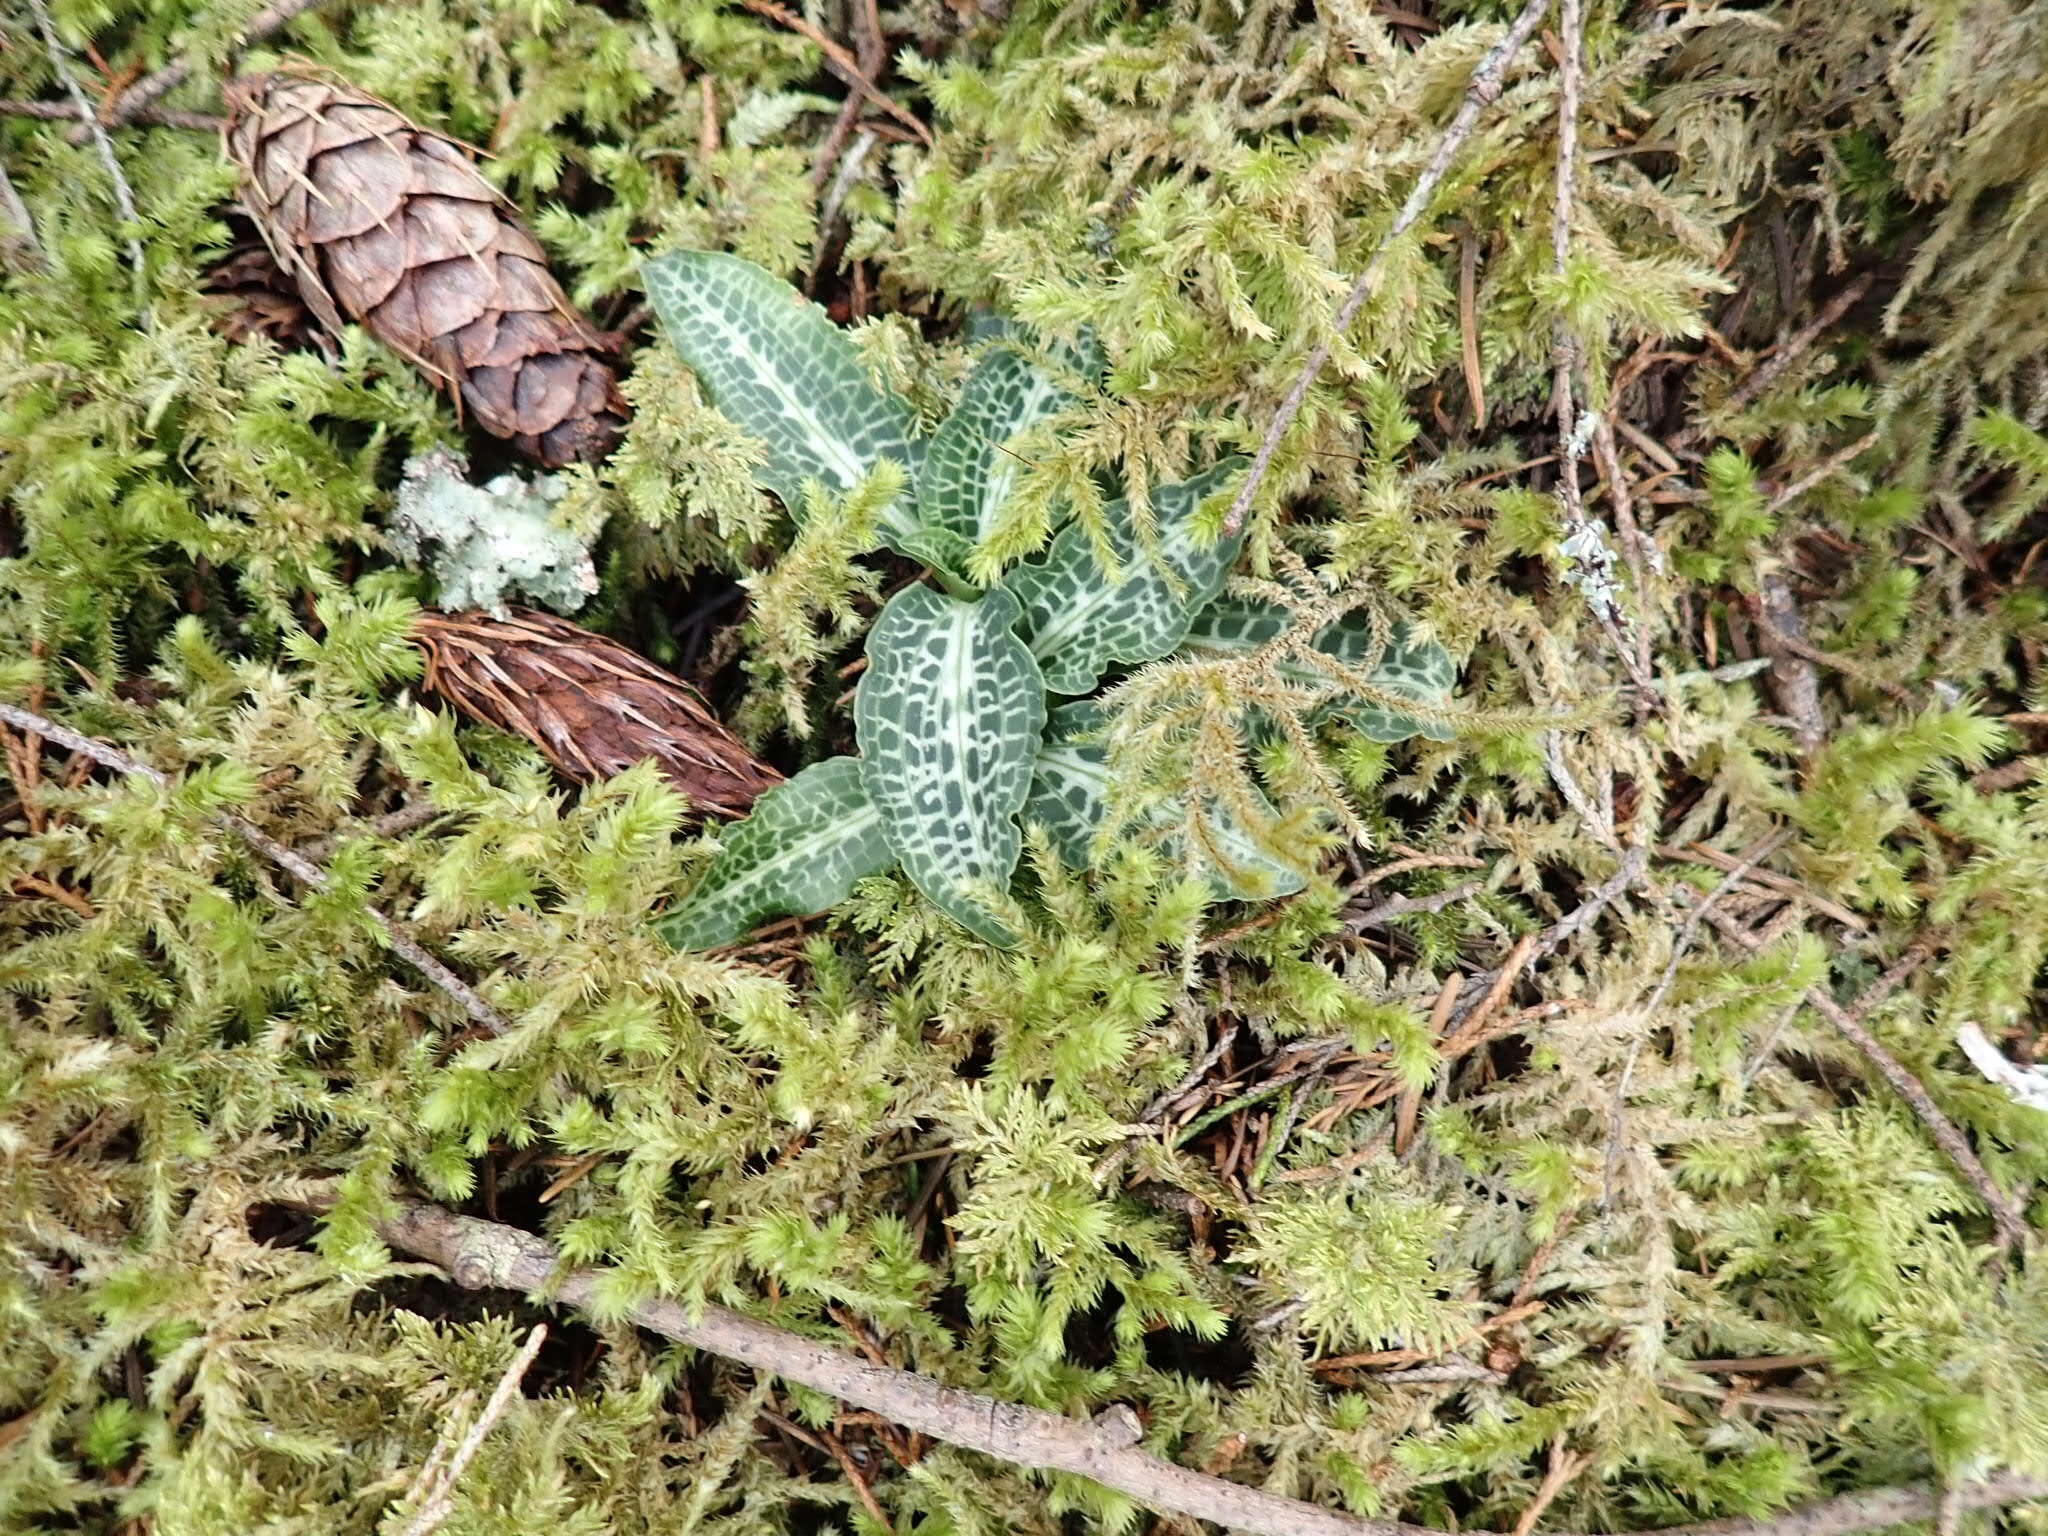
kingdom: Plantae
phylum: Tracheophyta
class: Liliopsida
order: Asparagales
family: Orchidaceae
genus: Goodyera
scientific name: Goodyera oblongifolia
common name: Giant rattlesnake-plantain
